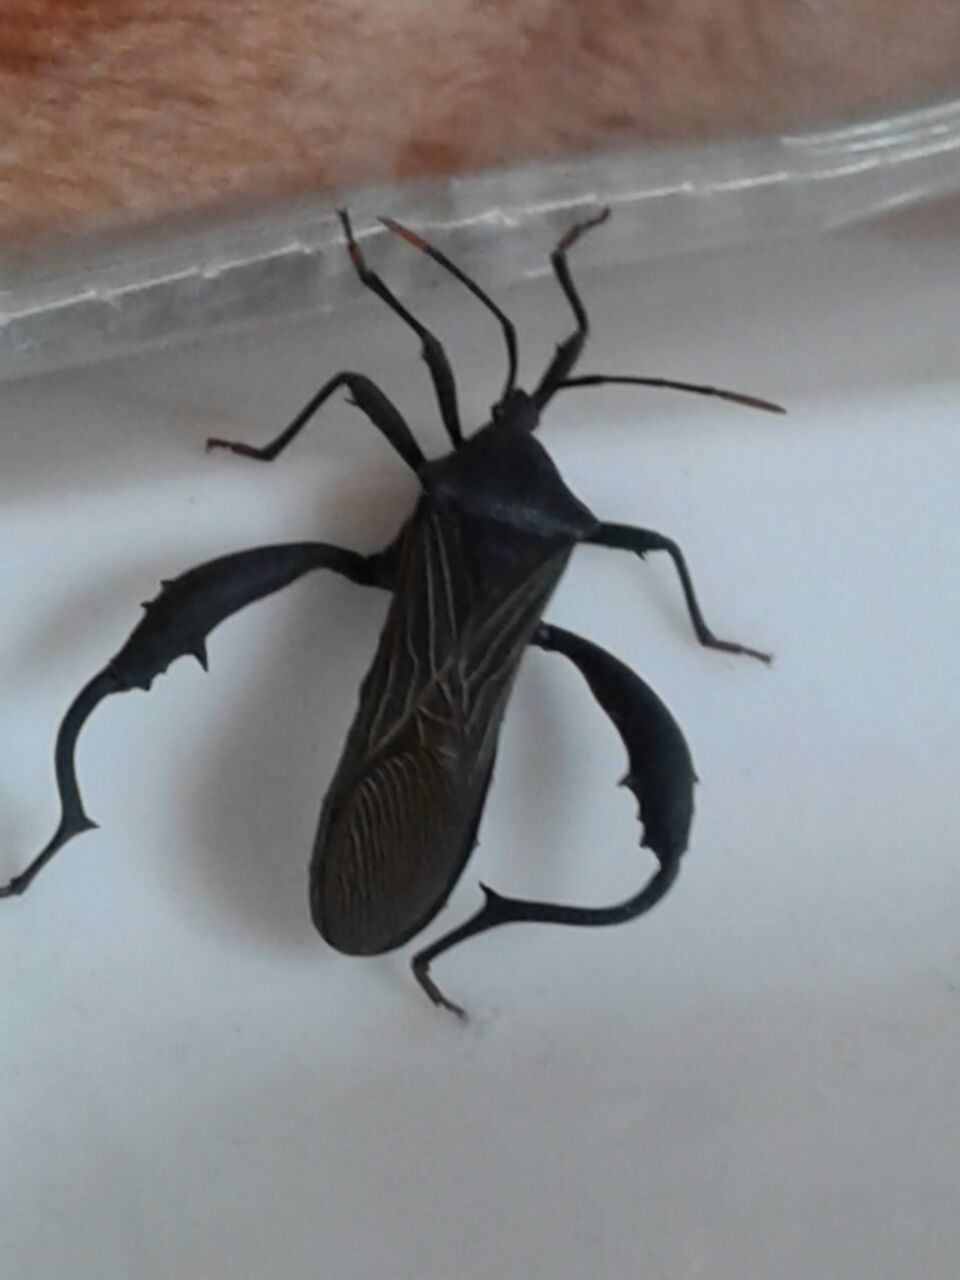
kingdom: Animalia
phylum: Arthropoda
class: Insecta
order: Hemiptera
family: Coreidae
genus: Piezogaster
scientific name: Piezogaster vates
